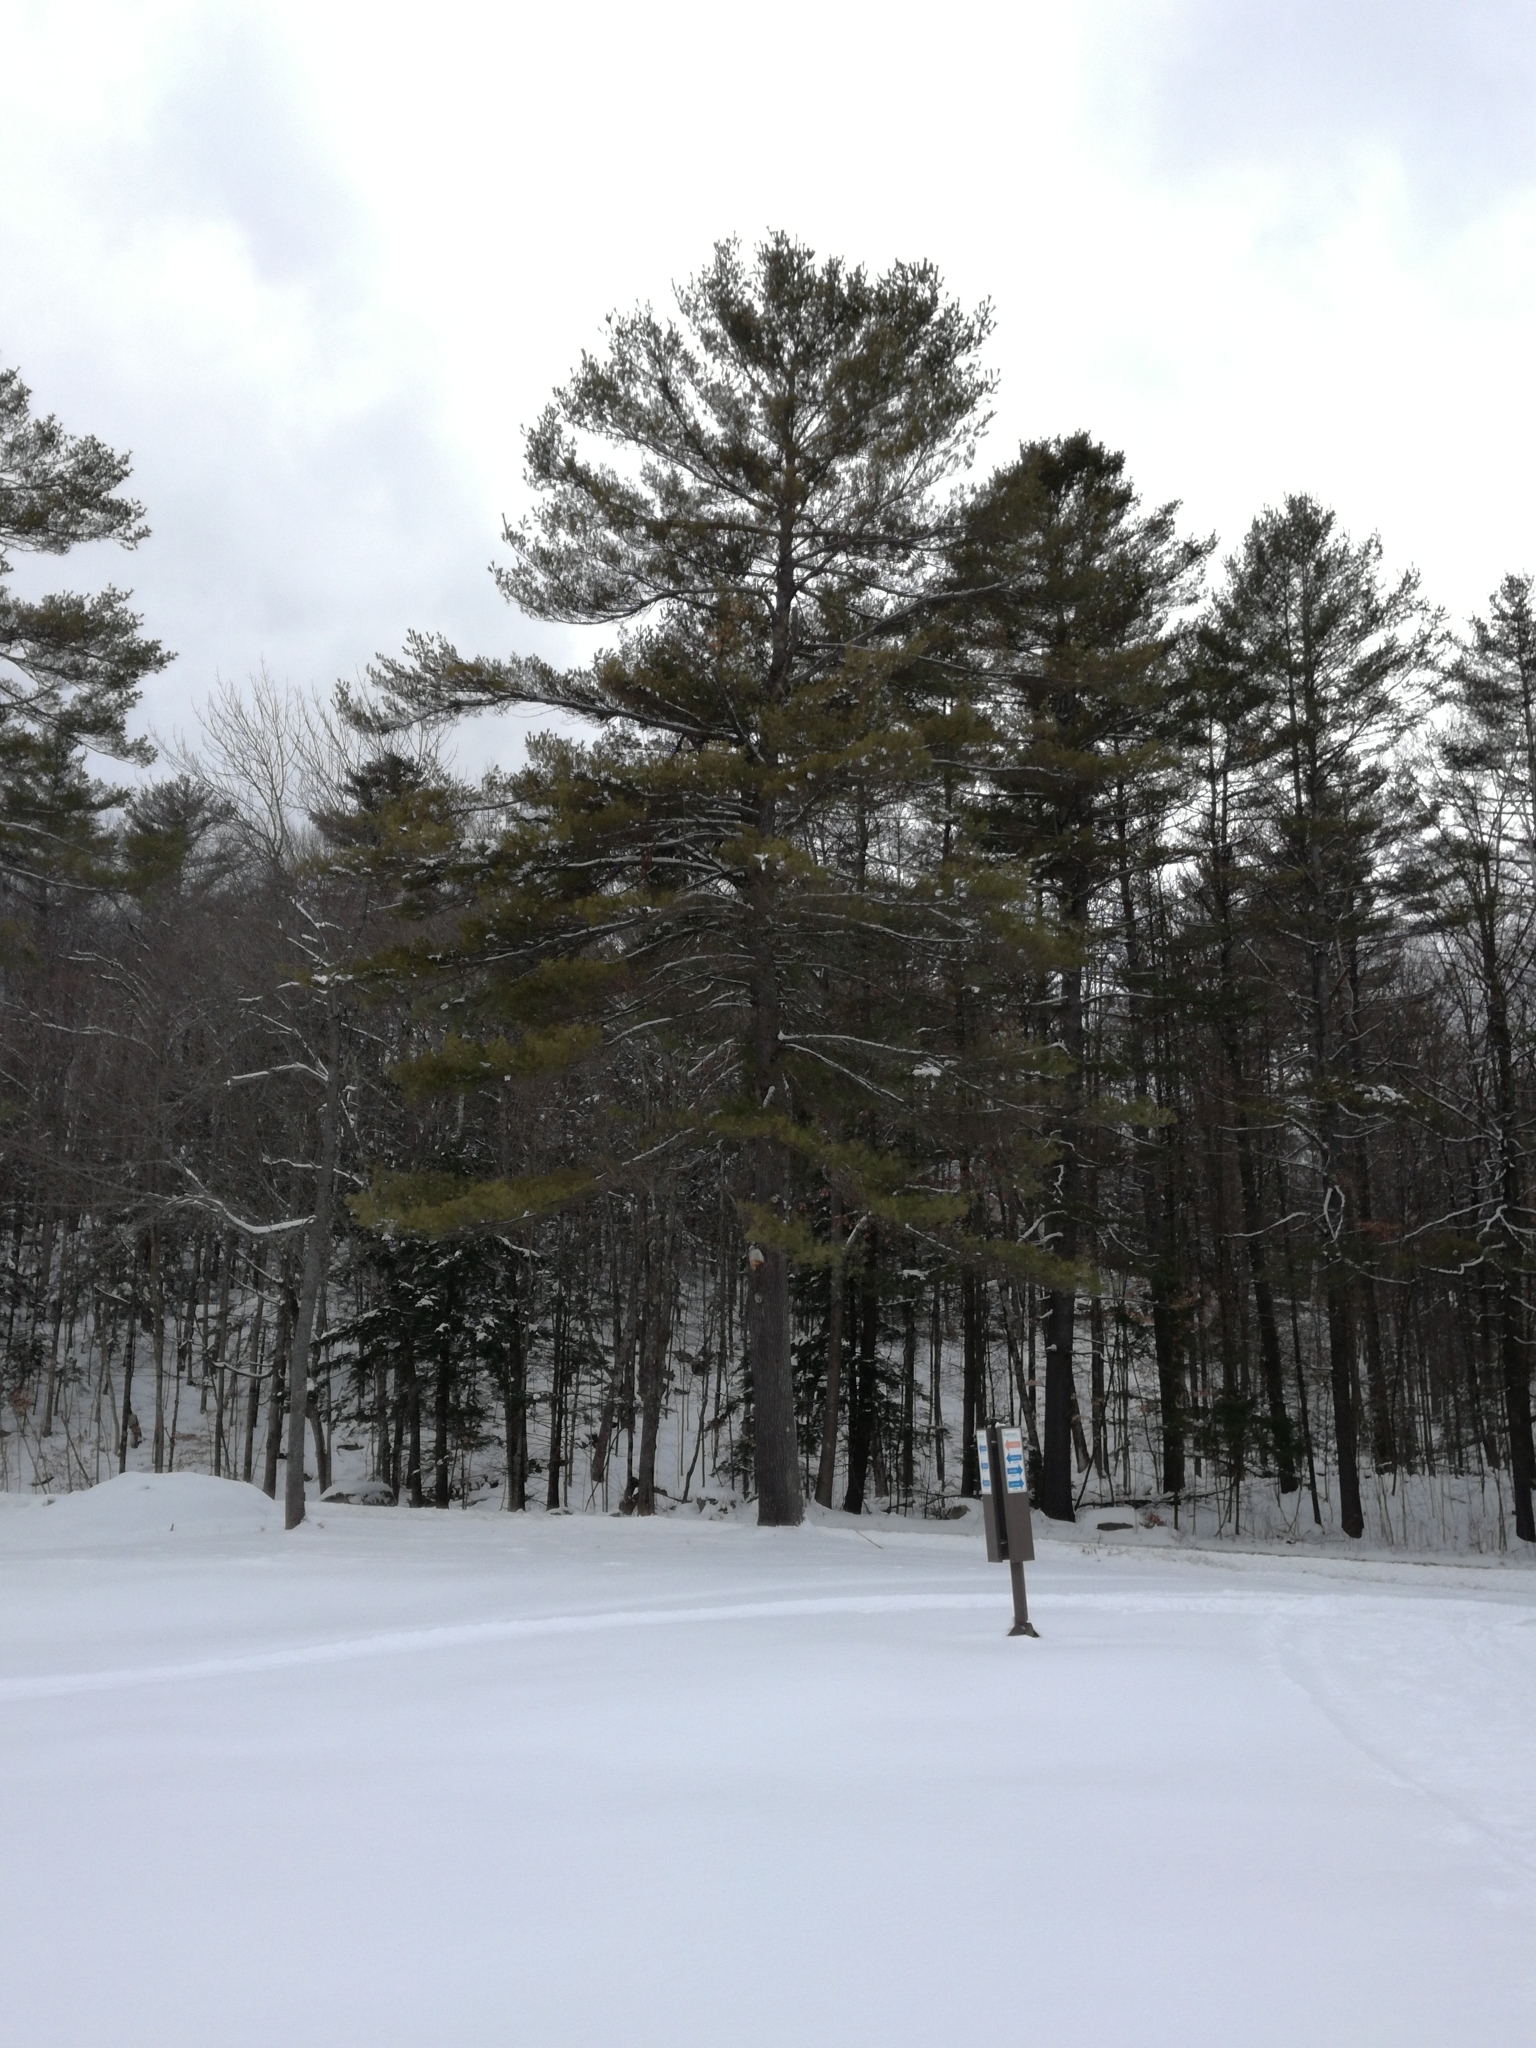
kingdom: Plantae
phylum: Tracheophyta
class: Pinopsida
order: Pinales
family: Pinaceae
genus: Pinus
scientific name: Pinus strobus
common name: Weymouth pine
